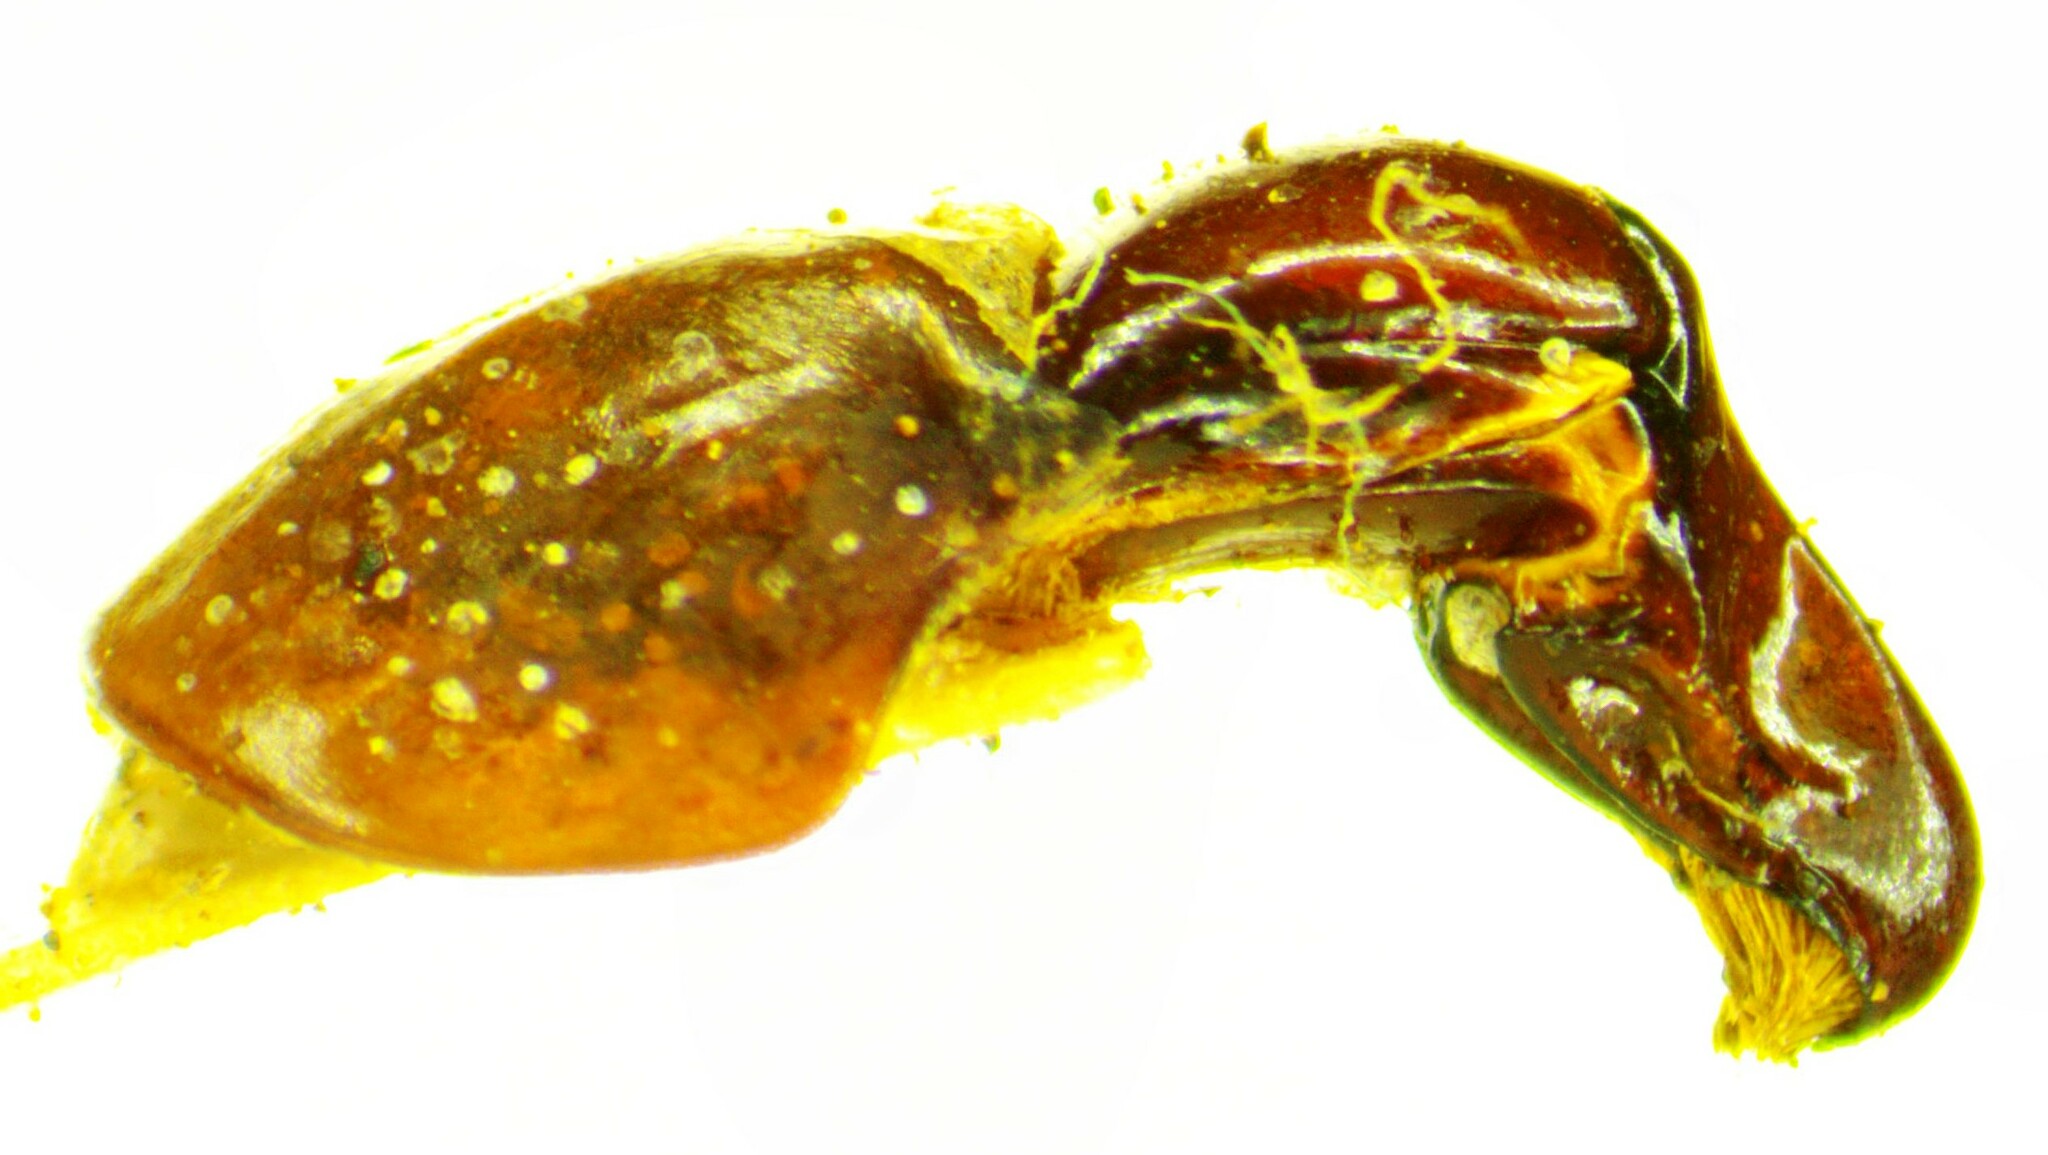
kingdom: Animalia
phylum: Arthropoda
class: Insecta
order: Coleoptera
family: Scarabaeidae
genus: Hemiphileurus
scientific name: Hemiphileurus laevicauda
